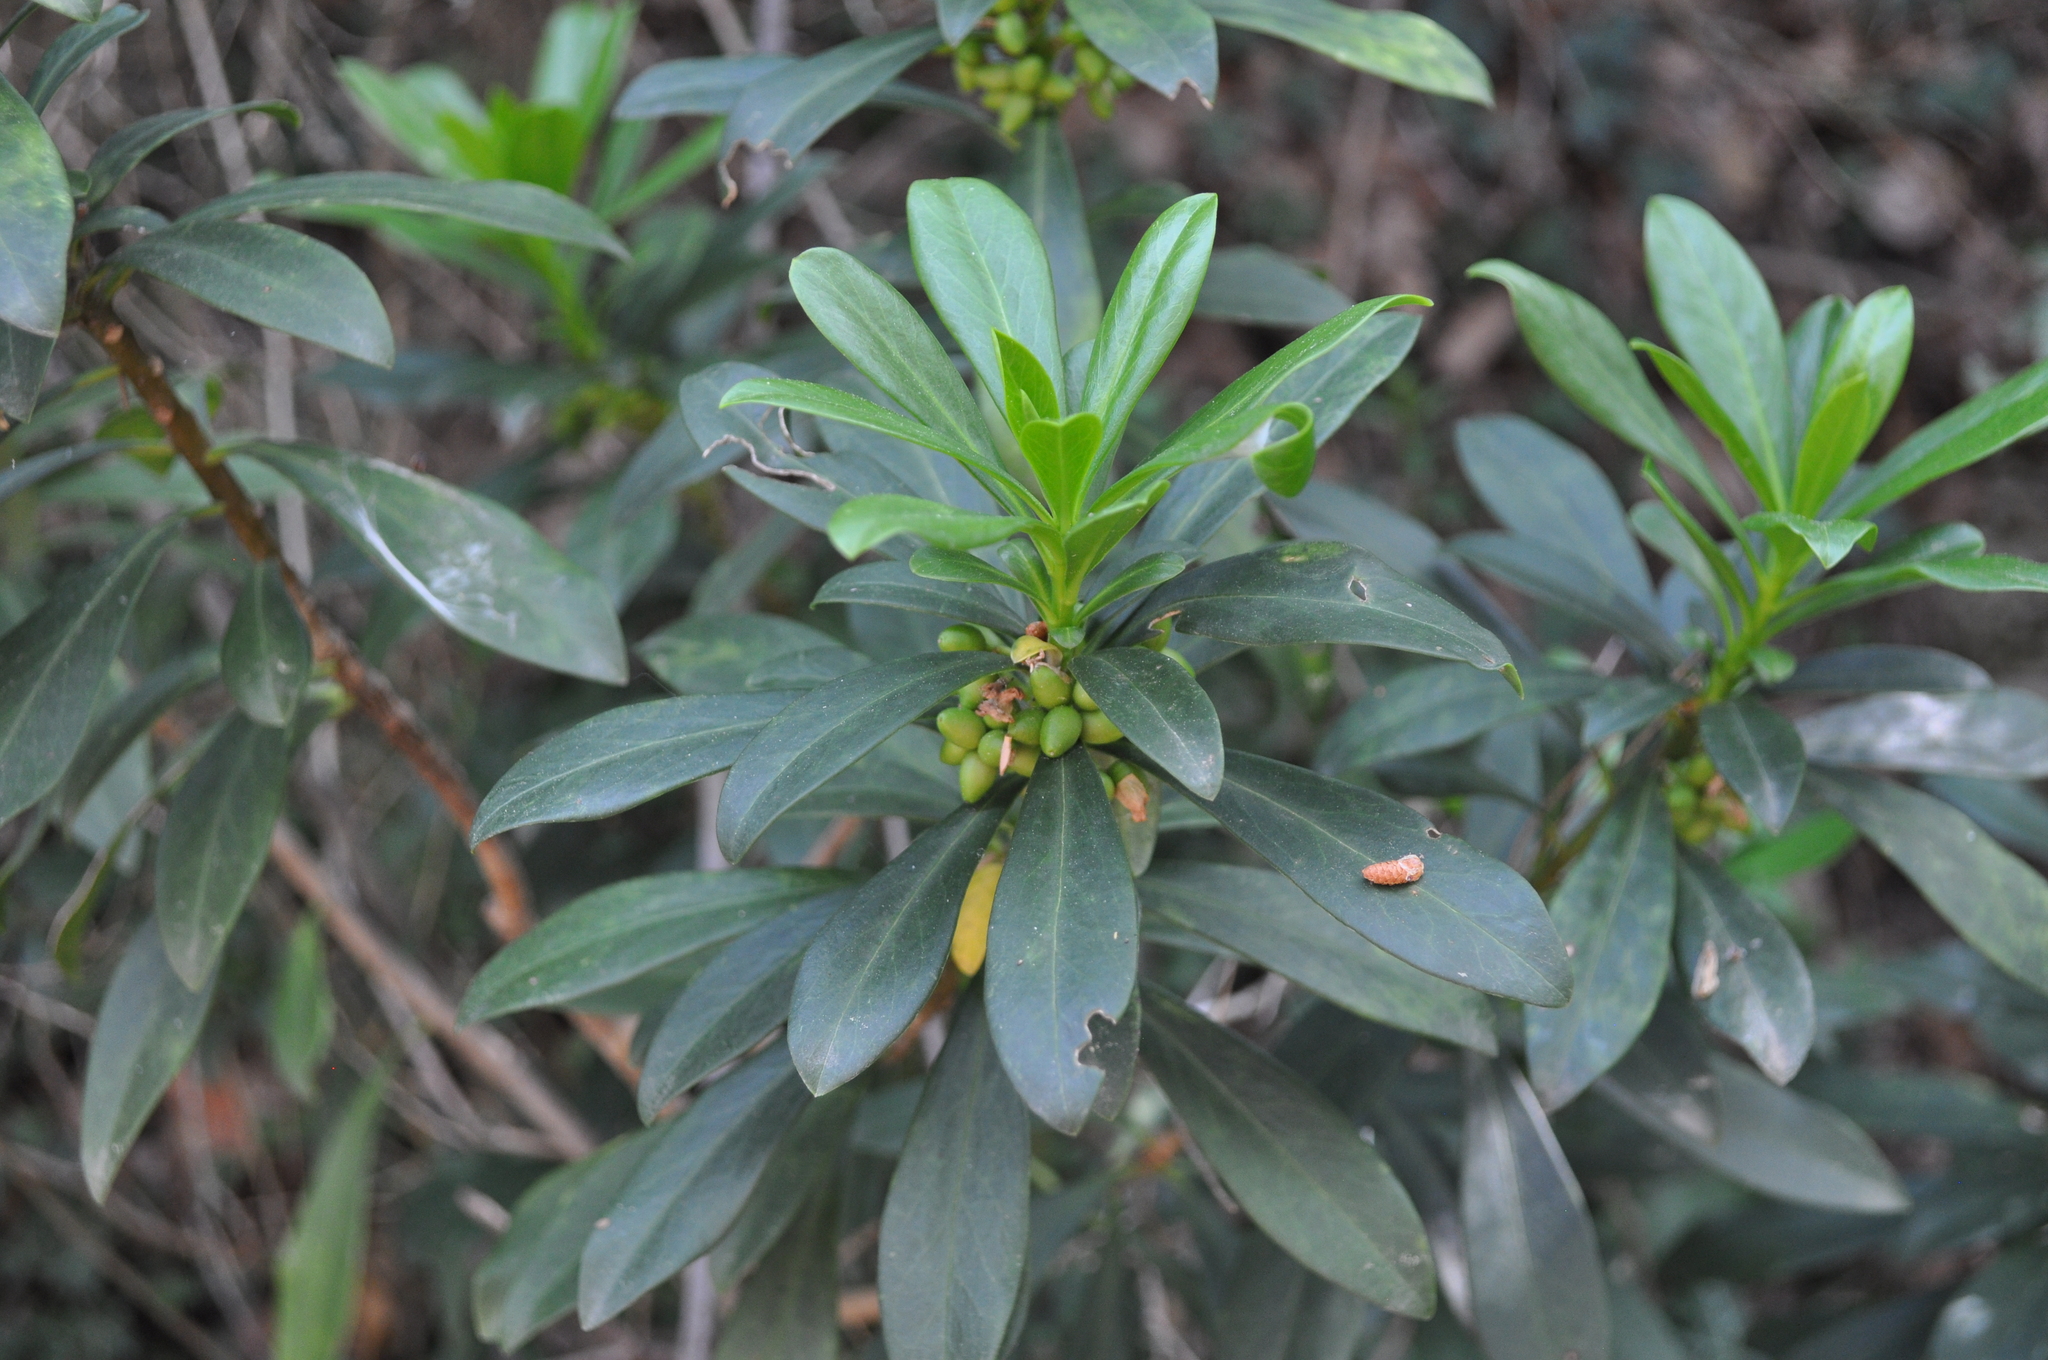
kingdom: Plantae
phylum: Tracheophyta
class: Magnoliopsida
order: Malvales
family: Thymelaeaceae
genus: Daphne
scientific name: Daphne laureola
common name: Spurge-laurel
